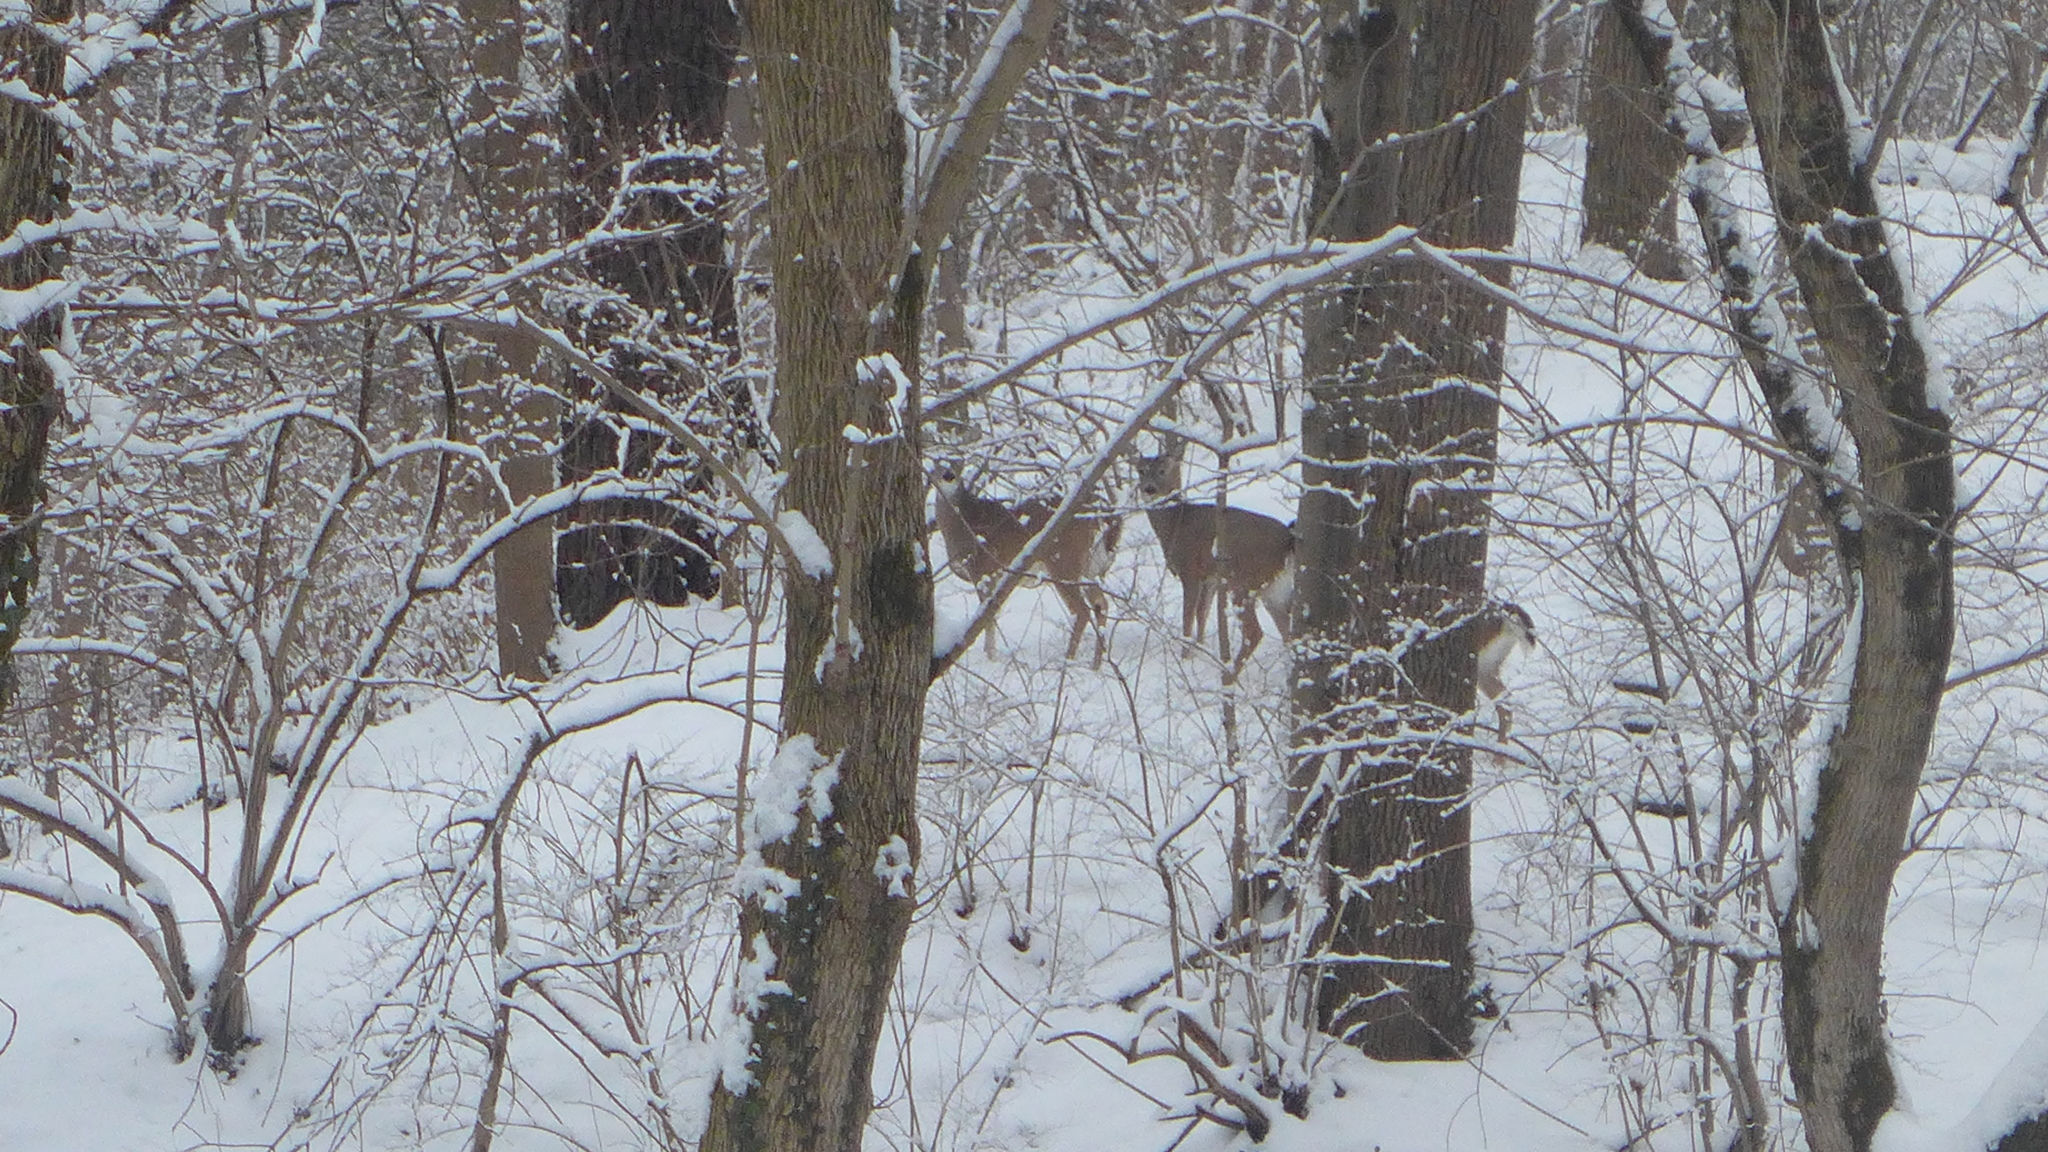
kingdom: Animalia
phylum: Chordata
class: Mammalia
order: Artiodactyla
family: Cervidae
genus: Odocoileus
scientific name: Odocoileus virginianus
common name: White-tailed deer
